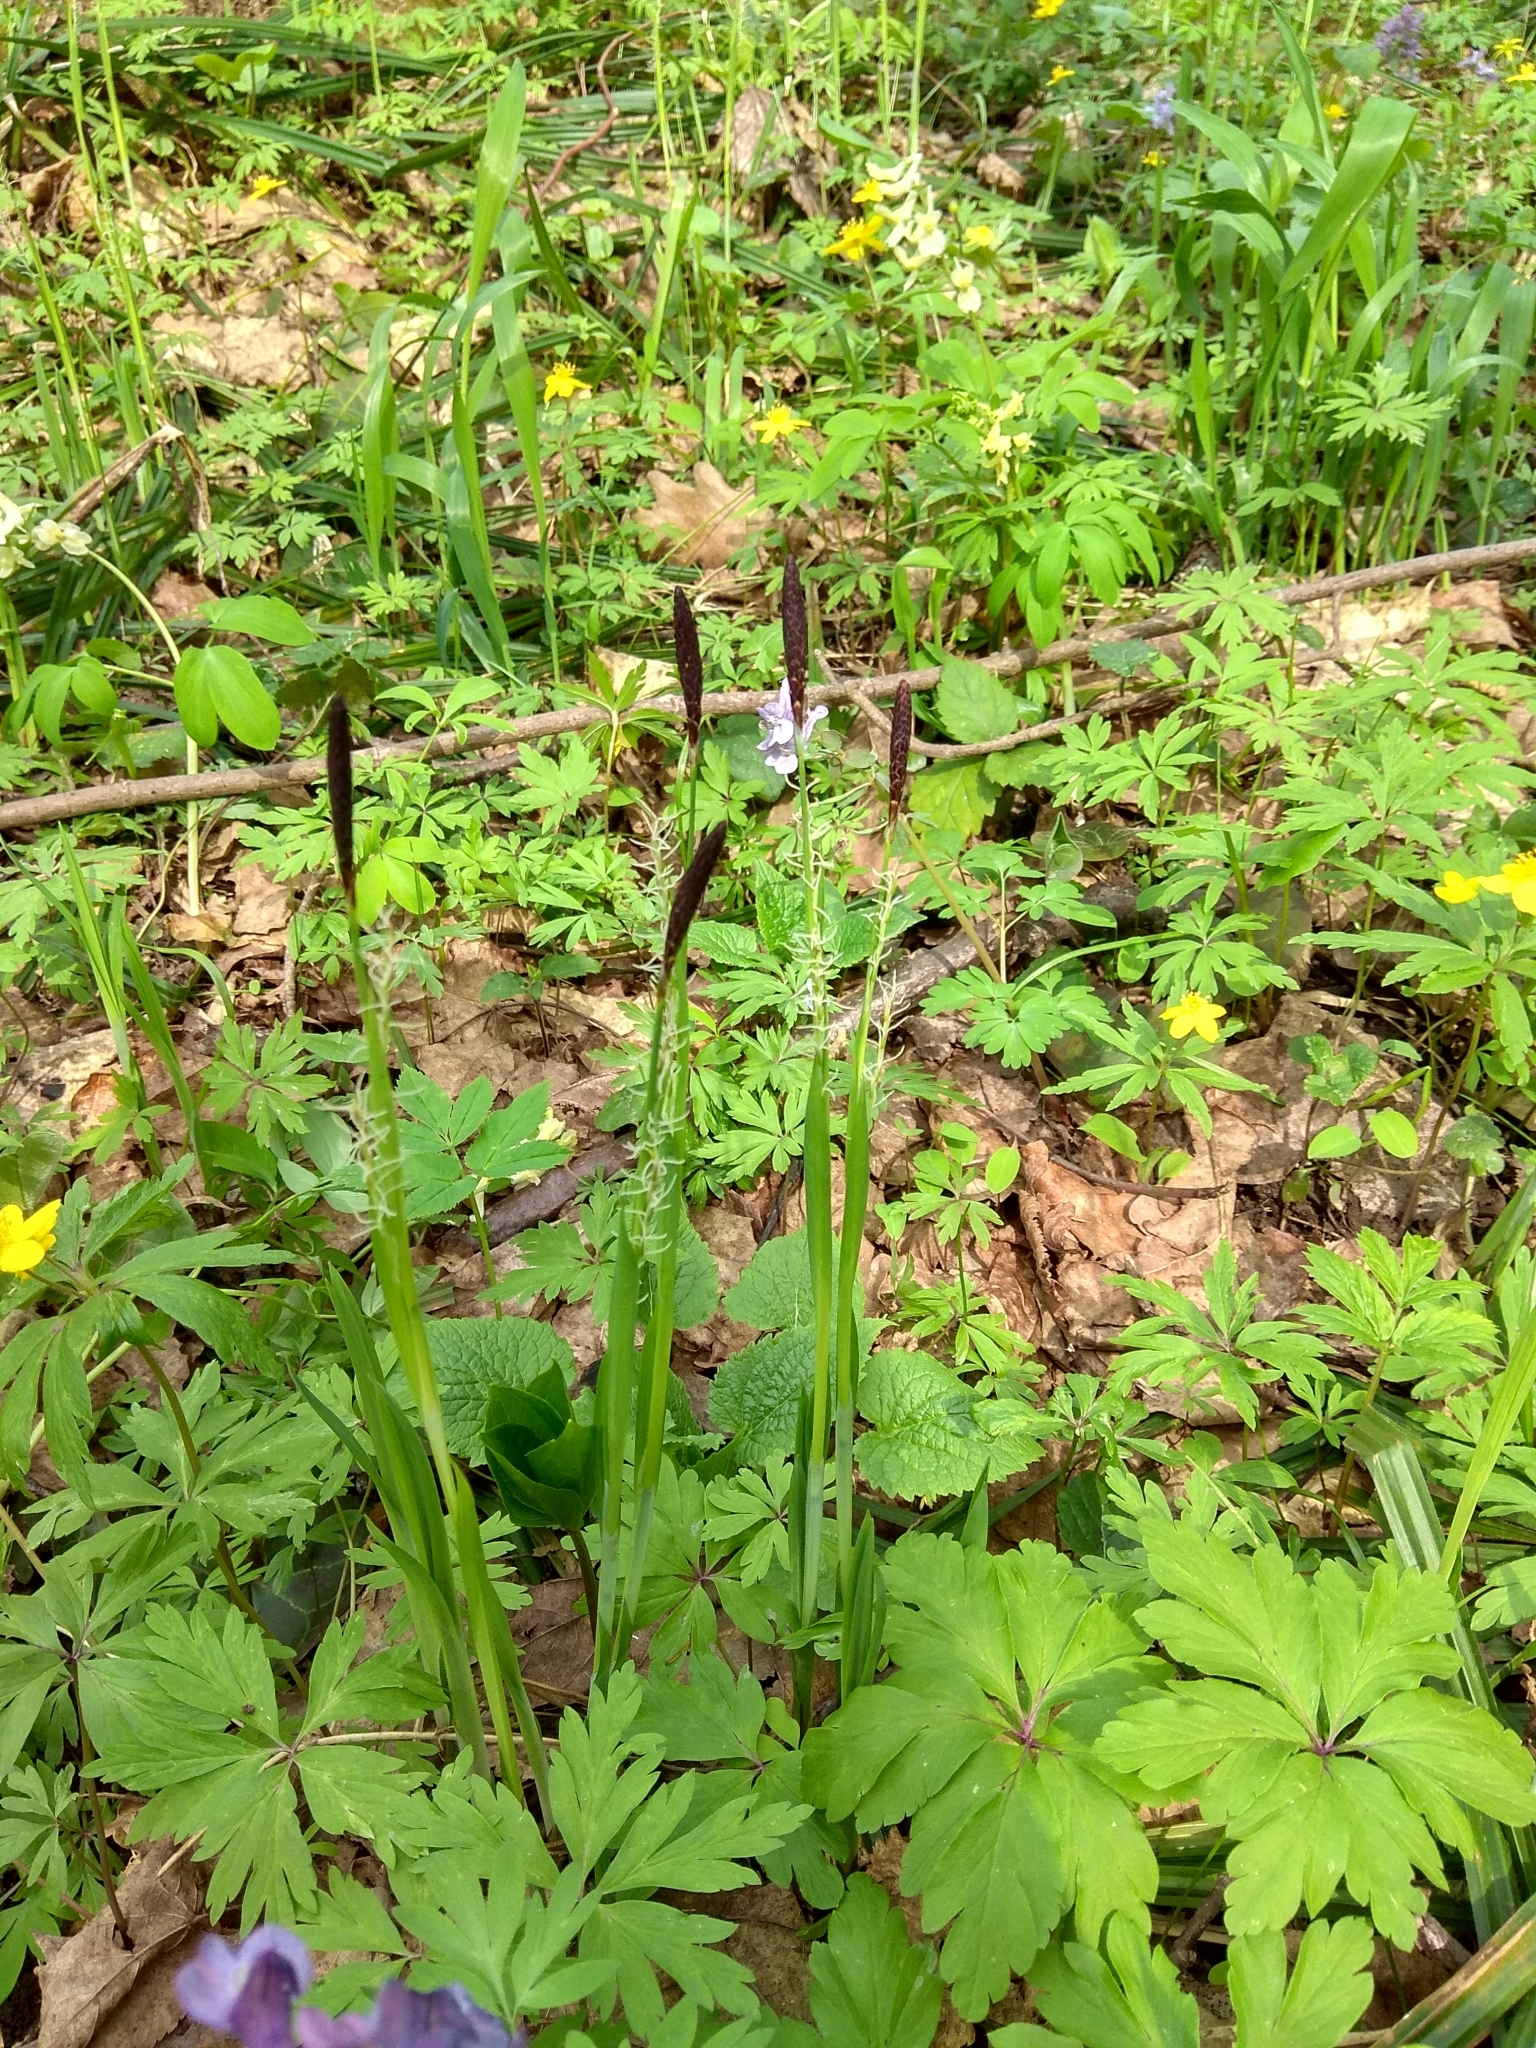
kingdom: Plantae
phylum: Tracheophyta
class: Liliopsida
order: Poales
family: Cyperaceae
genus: Carex
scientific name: Carex pilosa
